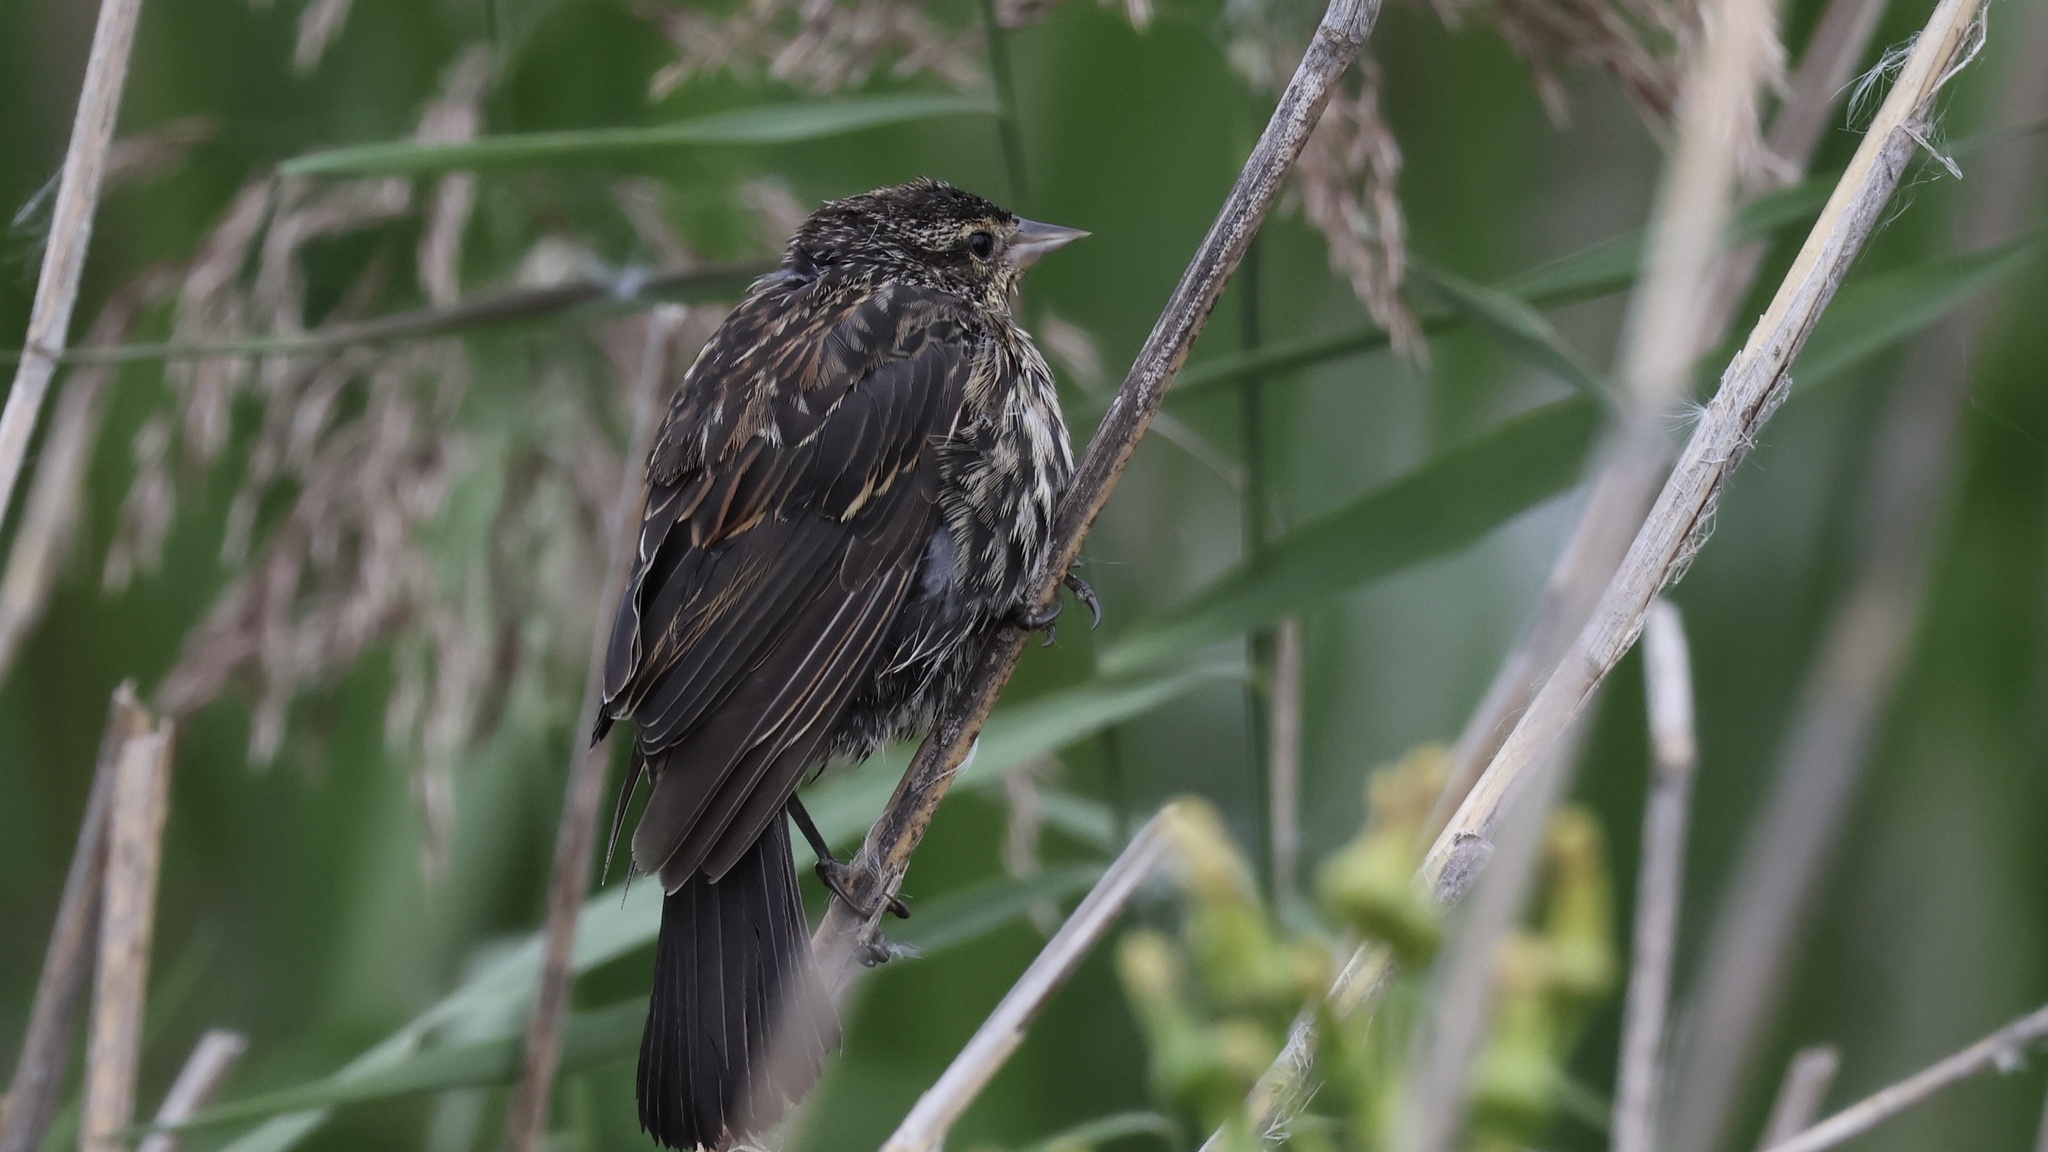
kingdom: Animalia
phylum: Chordata
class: Aves
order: Passeriformes
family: Icteridae
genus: Agelaius
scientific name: Agelaius phoeniceus
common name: Red-winged blackbird
